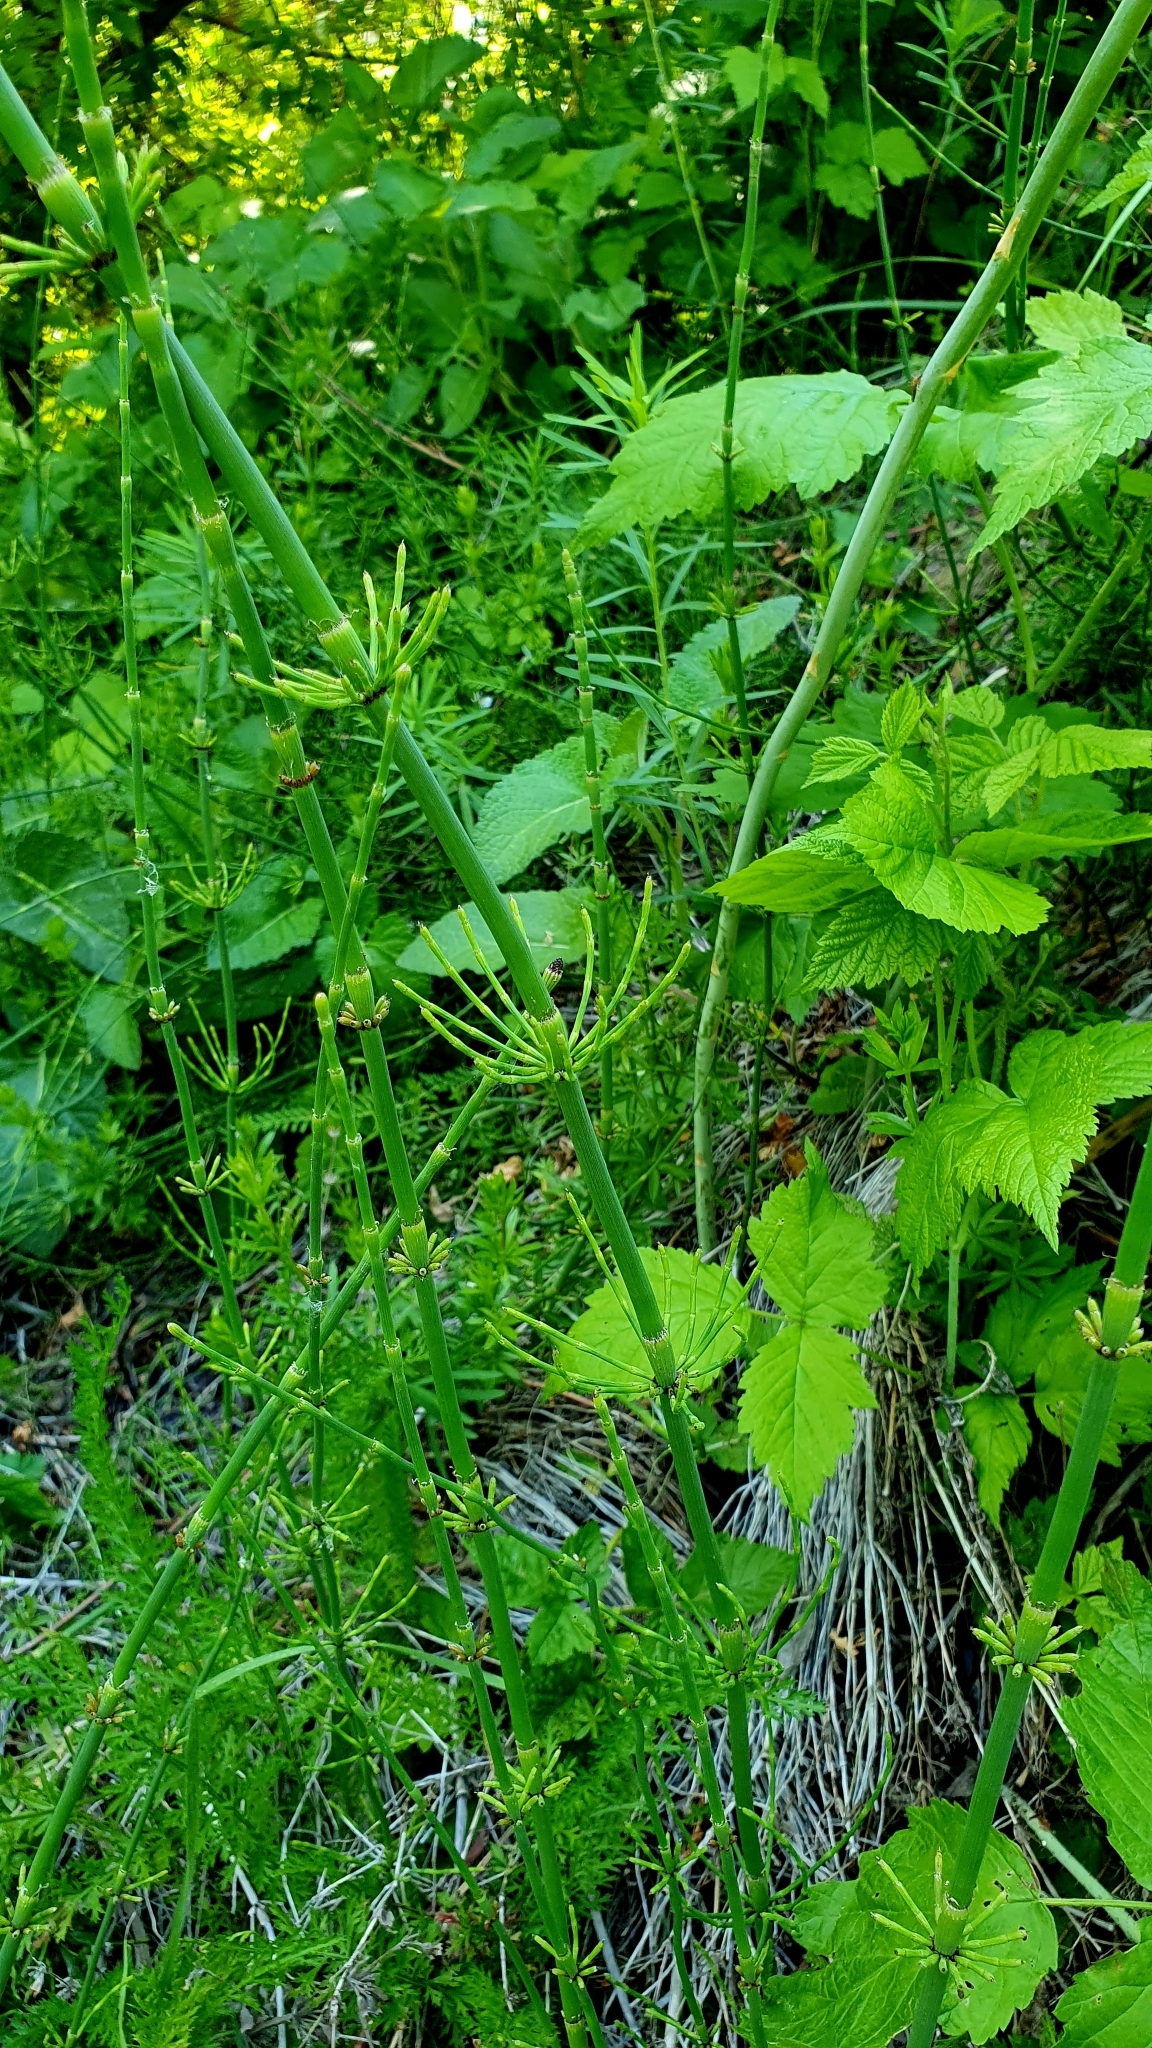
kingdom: Plantae
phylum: Tracheophyta
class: Polypodiopsida
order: Equisetales
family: Equisetaceae
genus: Equisetum
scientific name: Equisetum ramosissimum
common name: Branched horsetail
